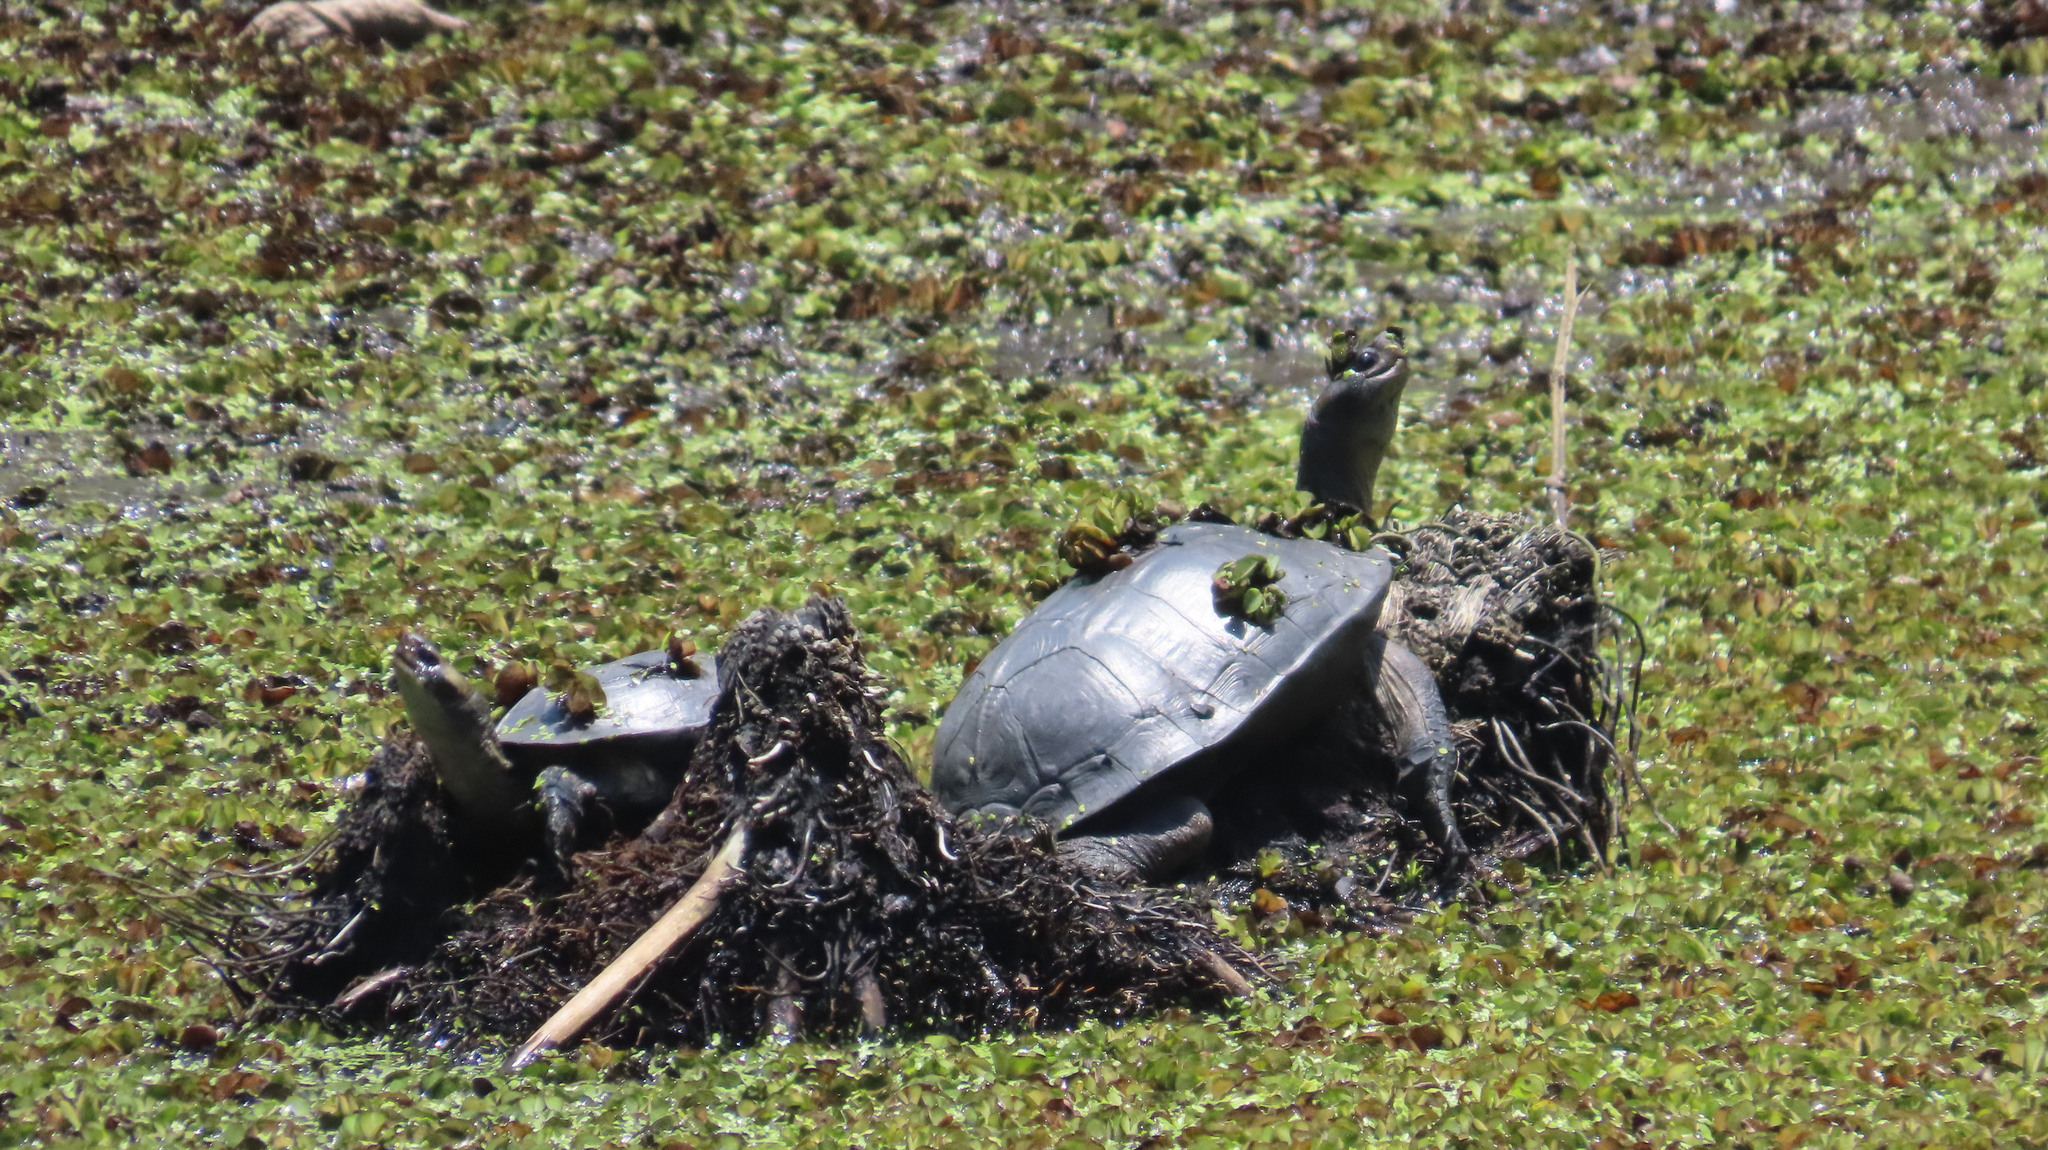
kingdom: Animalia
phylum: Chordata
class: Testudines
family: Geoemydidae
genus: Melanochelys
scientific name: Melanochelys trijuga
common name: Indian black turtle
